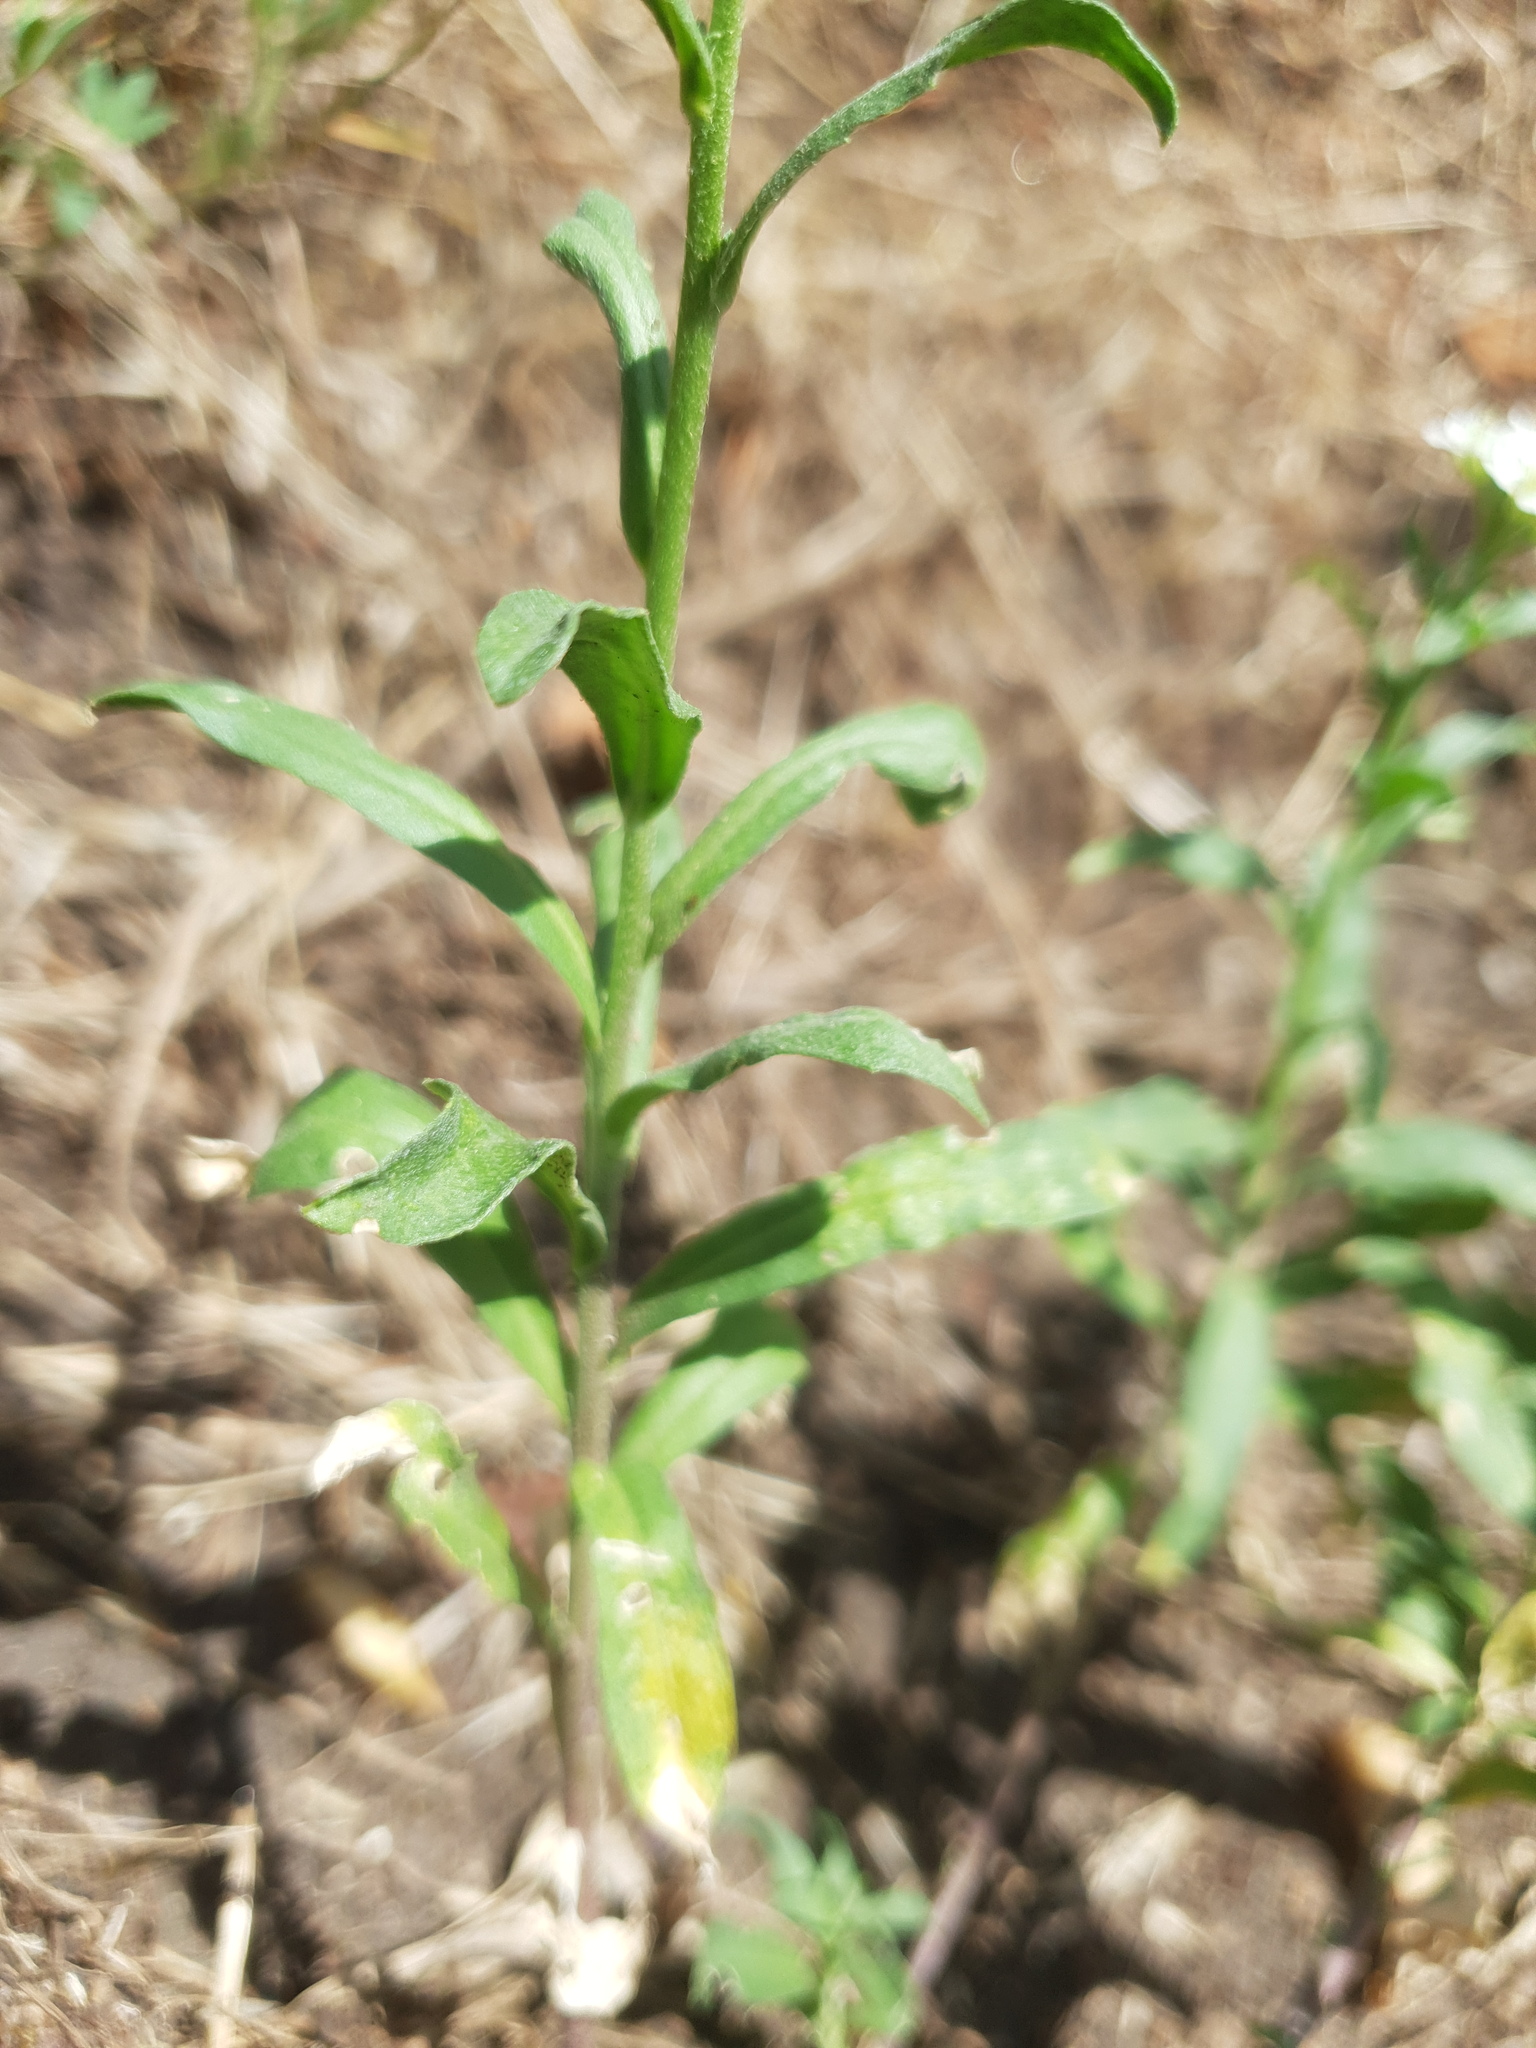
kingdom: Plantae
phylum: Tracheophyta
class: Magnoliopsida
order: Brassicales
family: Brassicaceae
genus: Berteroa
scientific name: Berteroa incana
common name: Hoary alison
